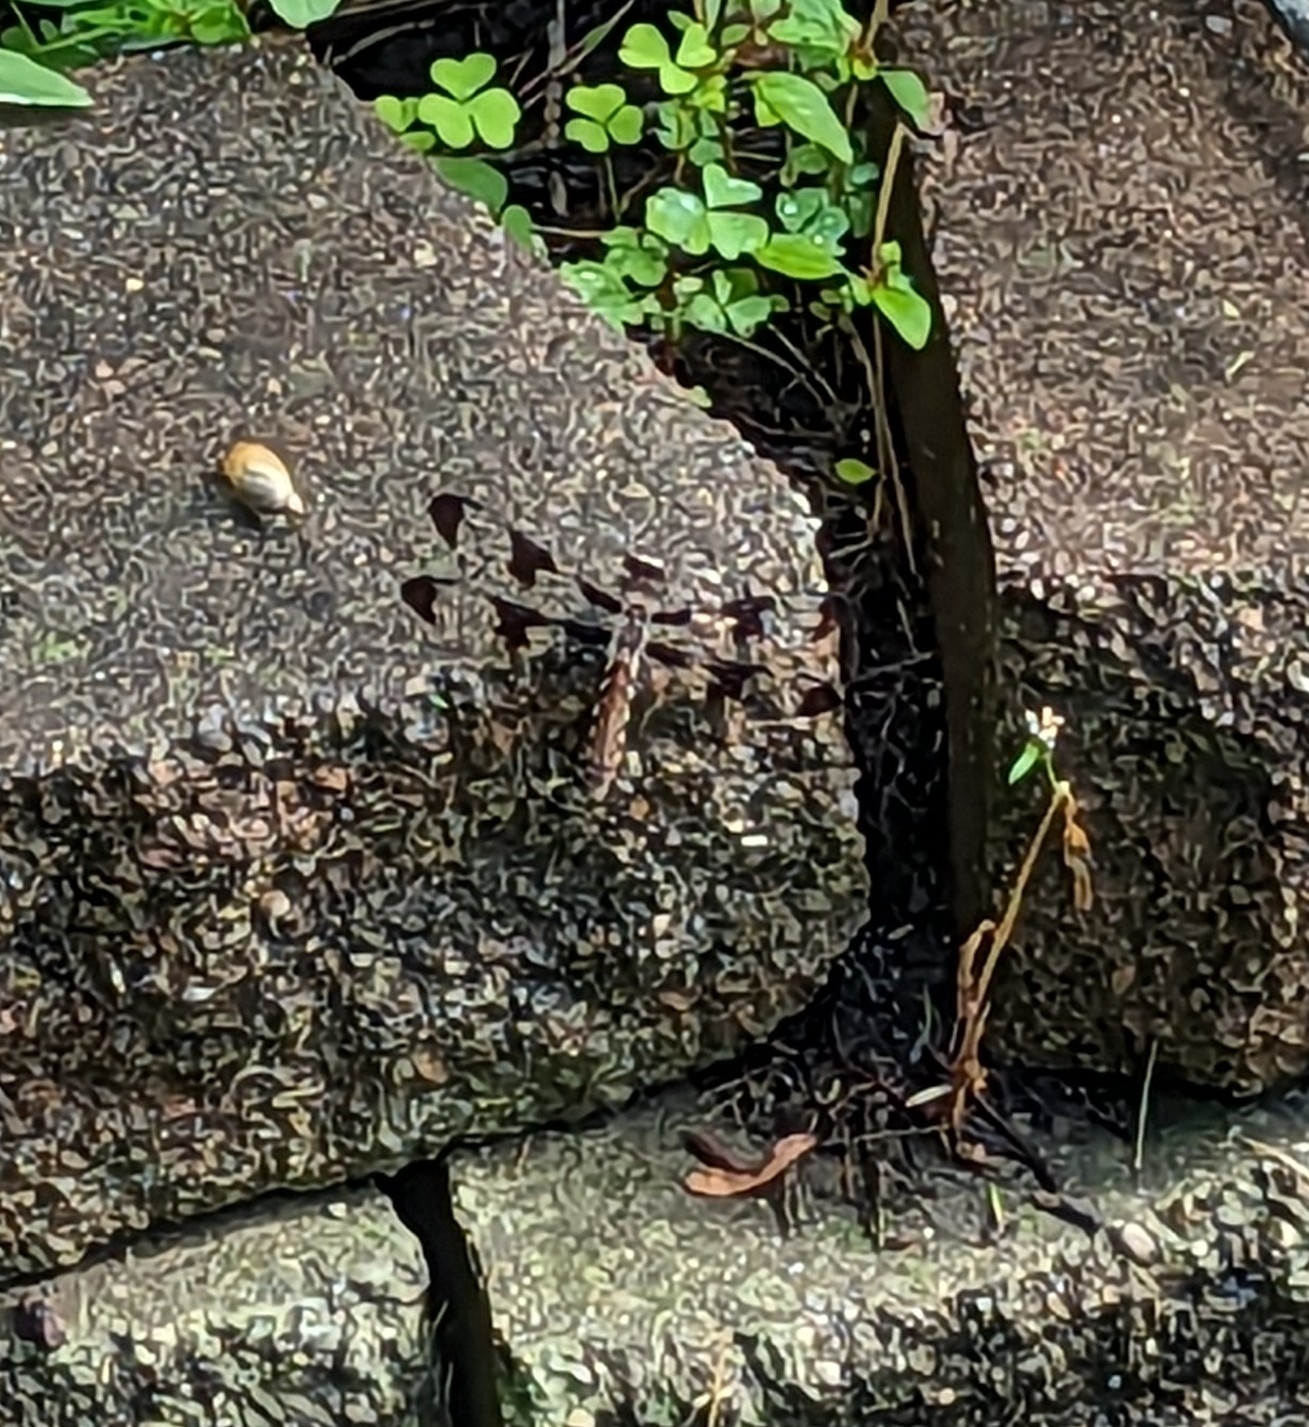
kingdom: Animalia
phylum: Arthropoda
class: Insecta
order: Odonata
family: Libellulidae
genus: Plathemis
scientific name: Plathemis lydia
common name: Common whitetail
